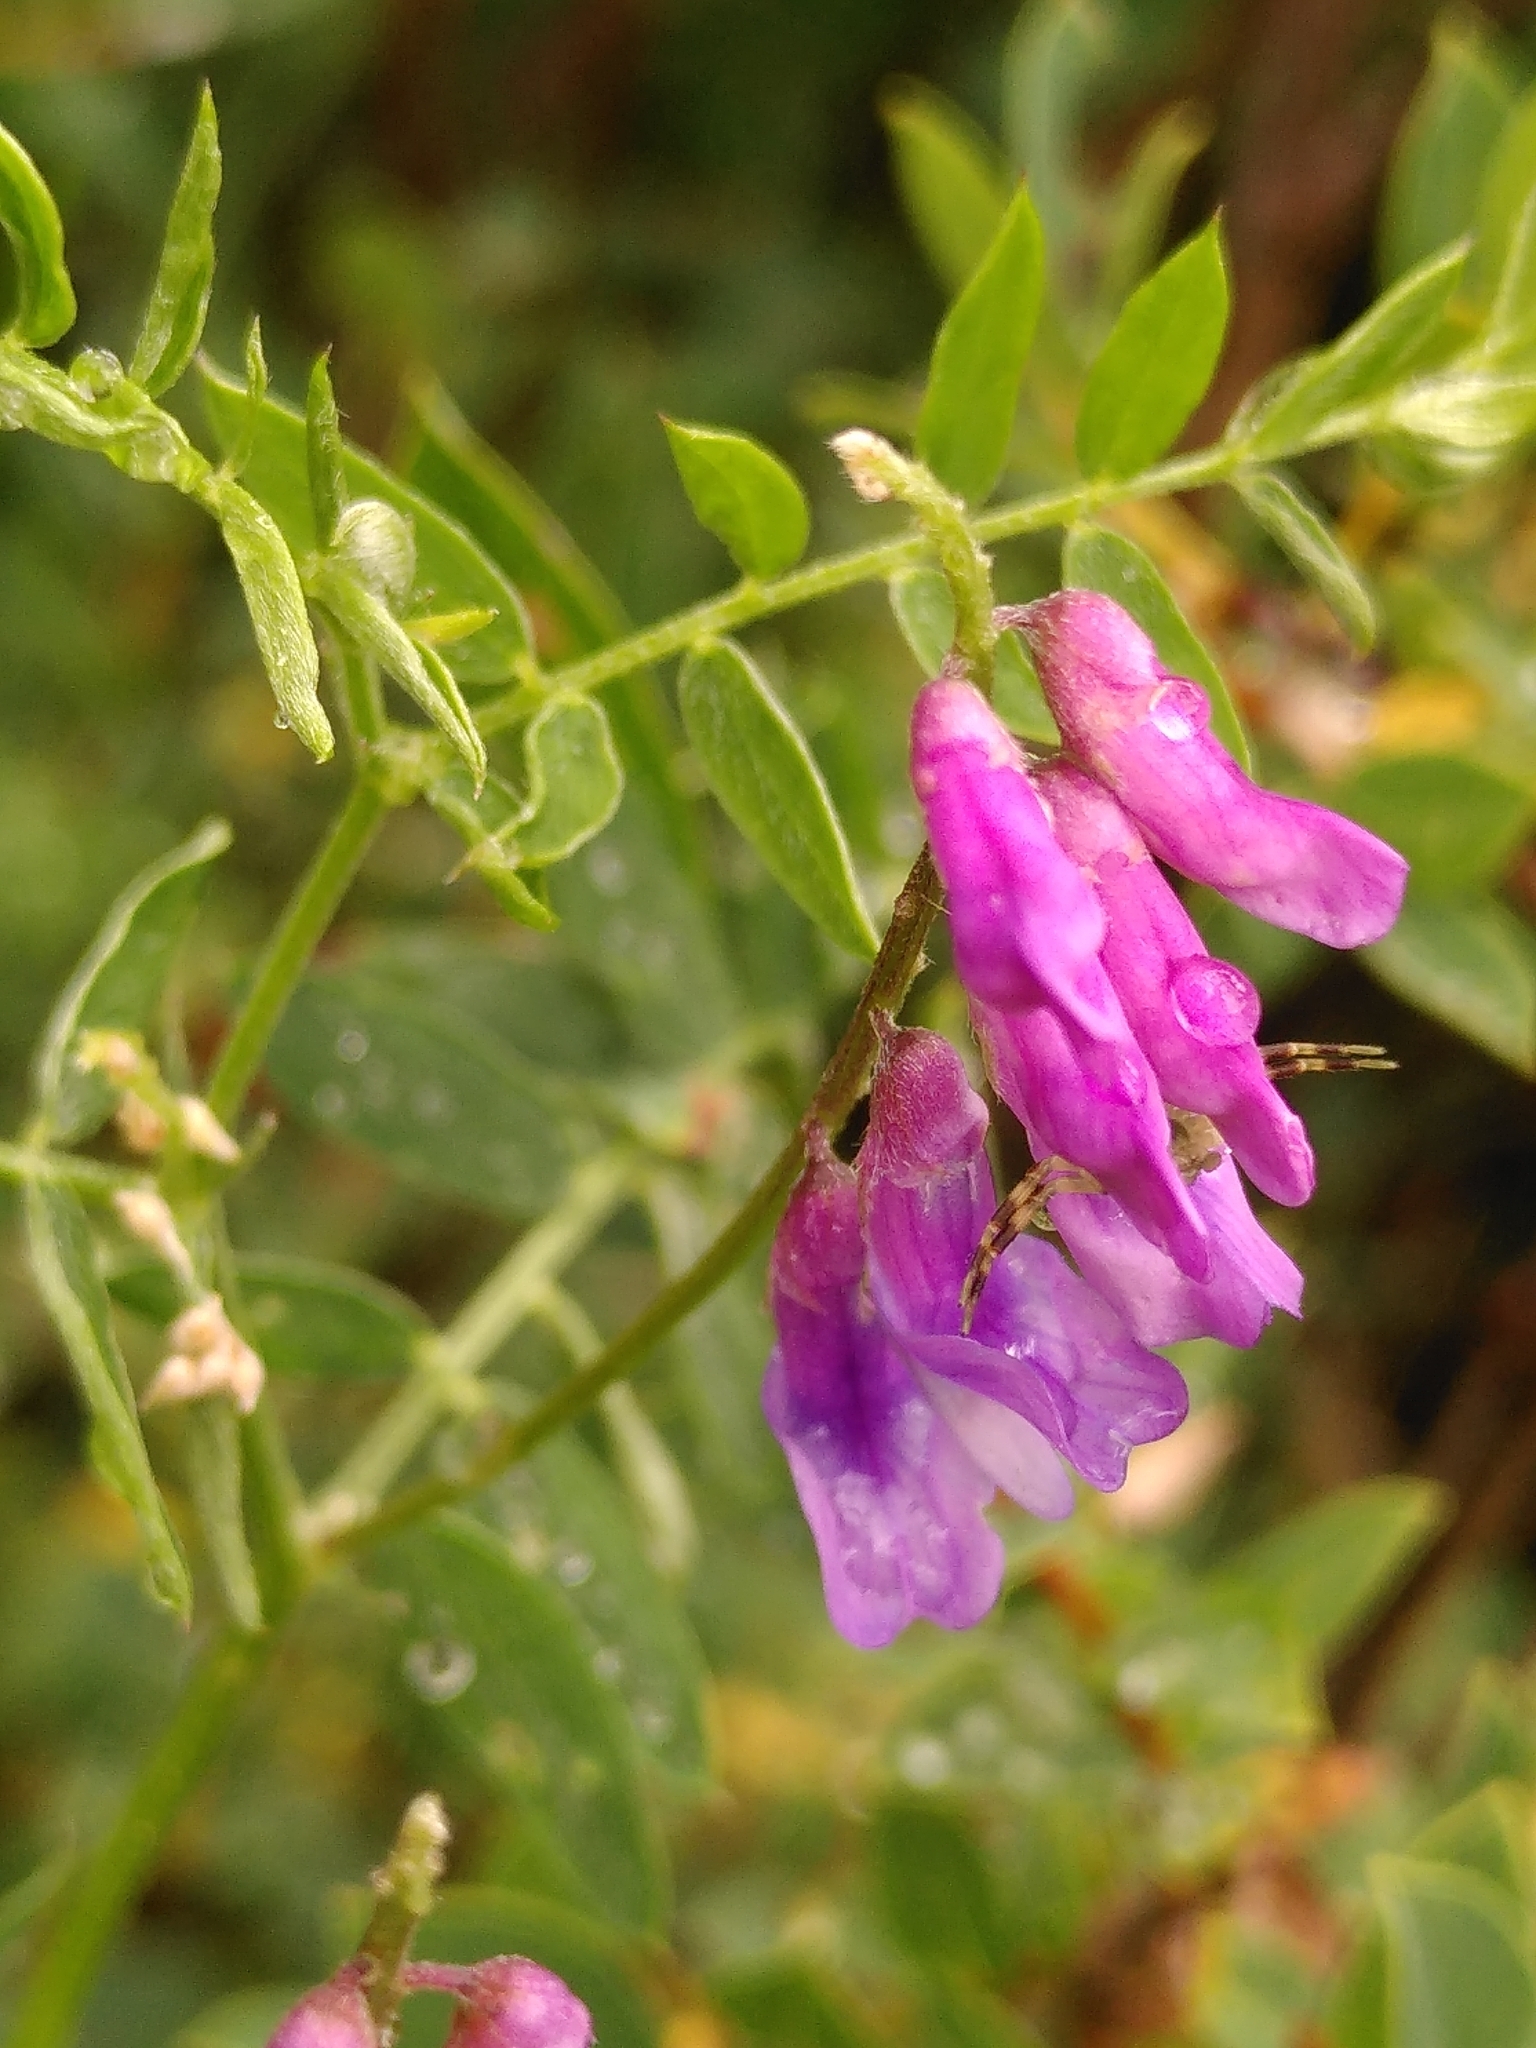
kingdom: Plantae
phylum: Tracheophyta
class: Magnoliopsida
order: Fabales
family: Fabaceae
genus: Vicia
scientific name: Vicia cracca
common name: Bird vetch
